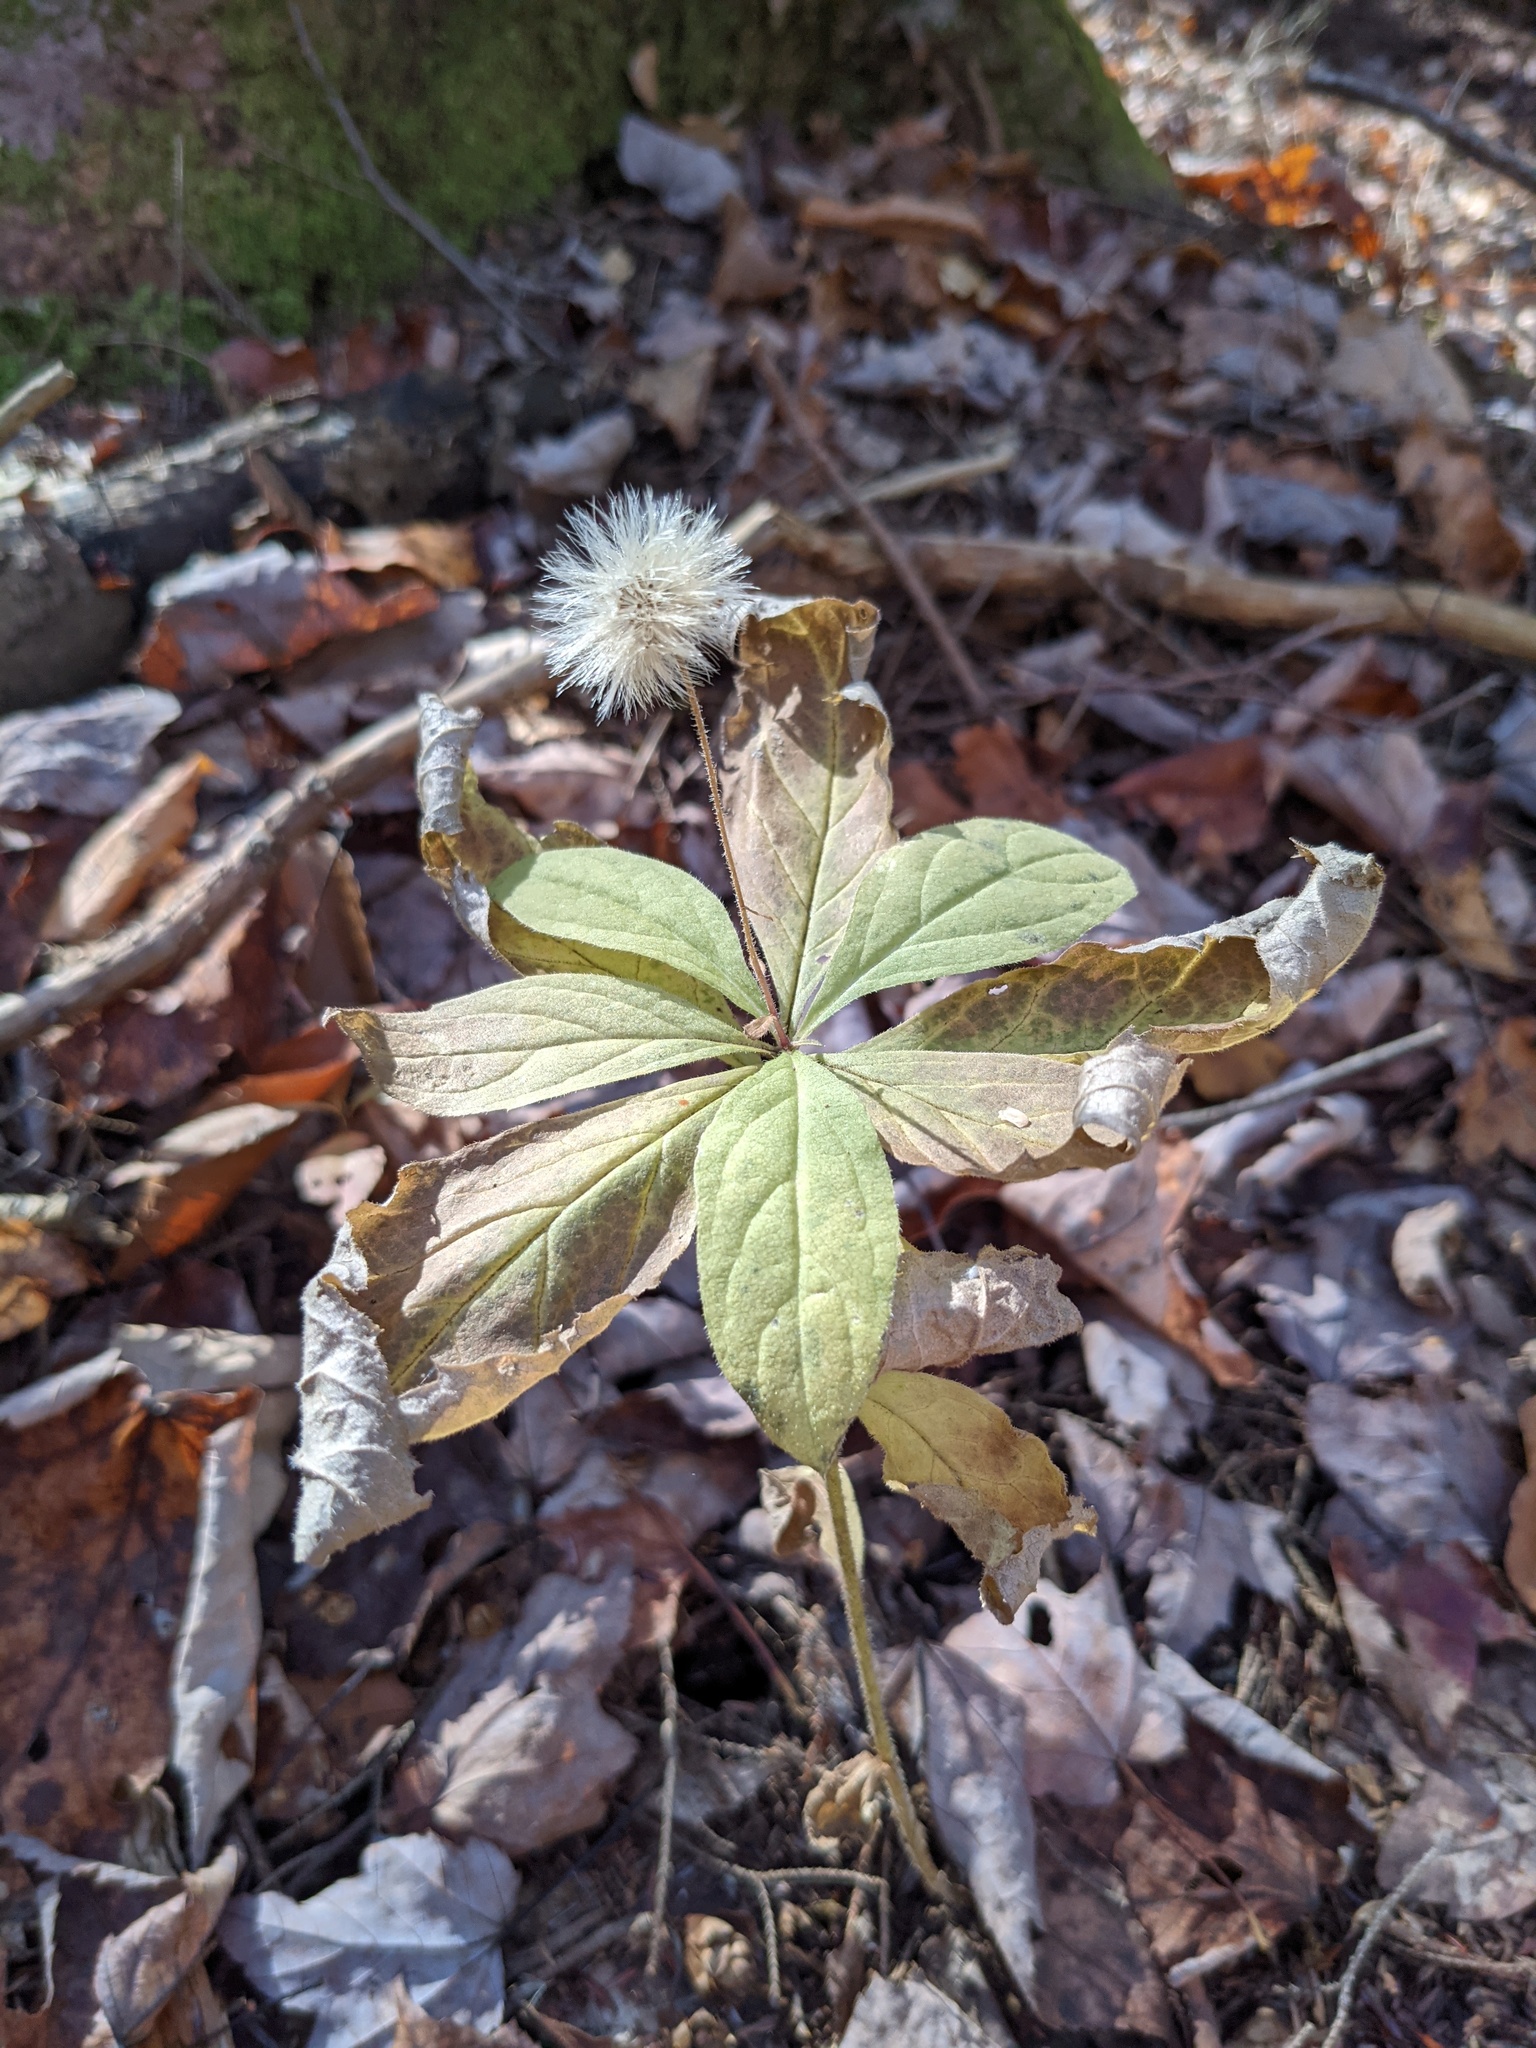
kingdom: Plantae
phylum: Tracheophyta
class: Magnoliopsida
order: Asterales
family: Asteraceae
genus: Oclemena
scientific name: Oclemena acuminata
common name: Mountain aster
